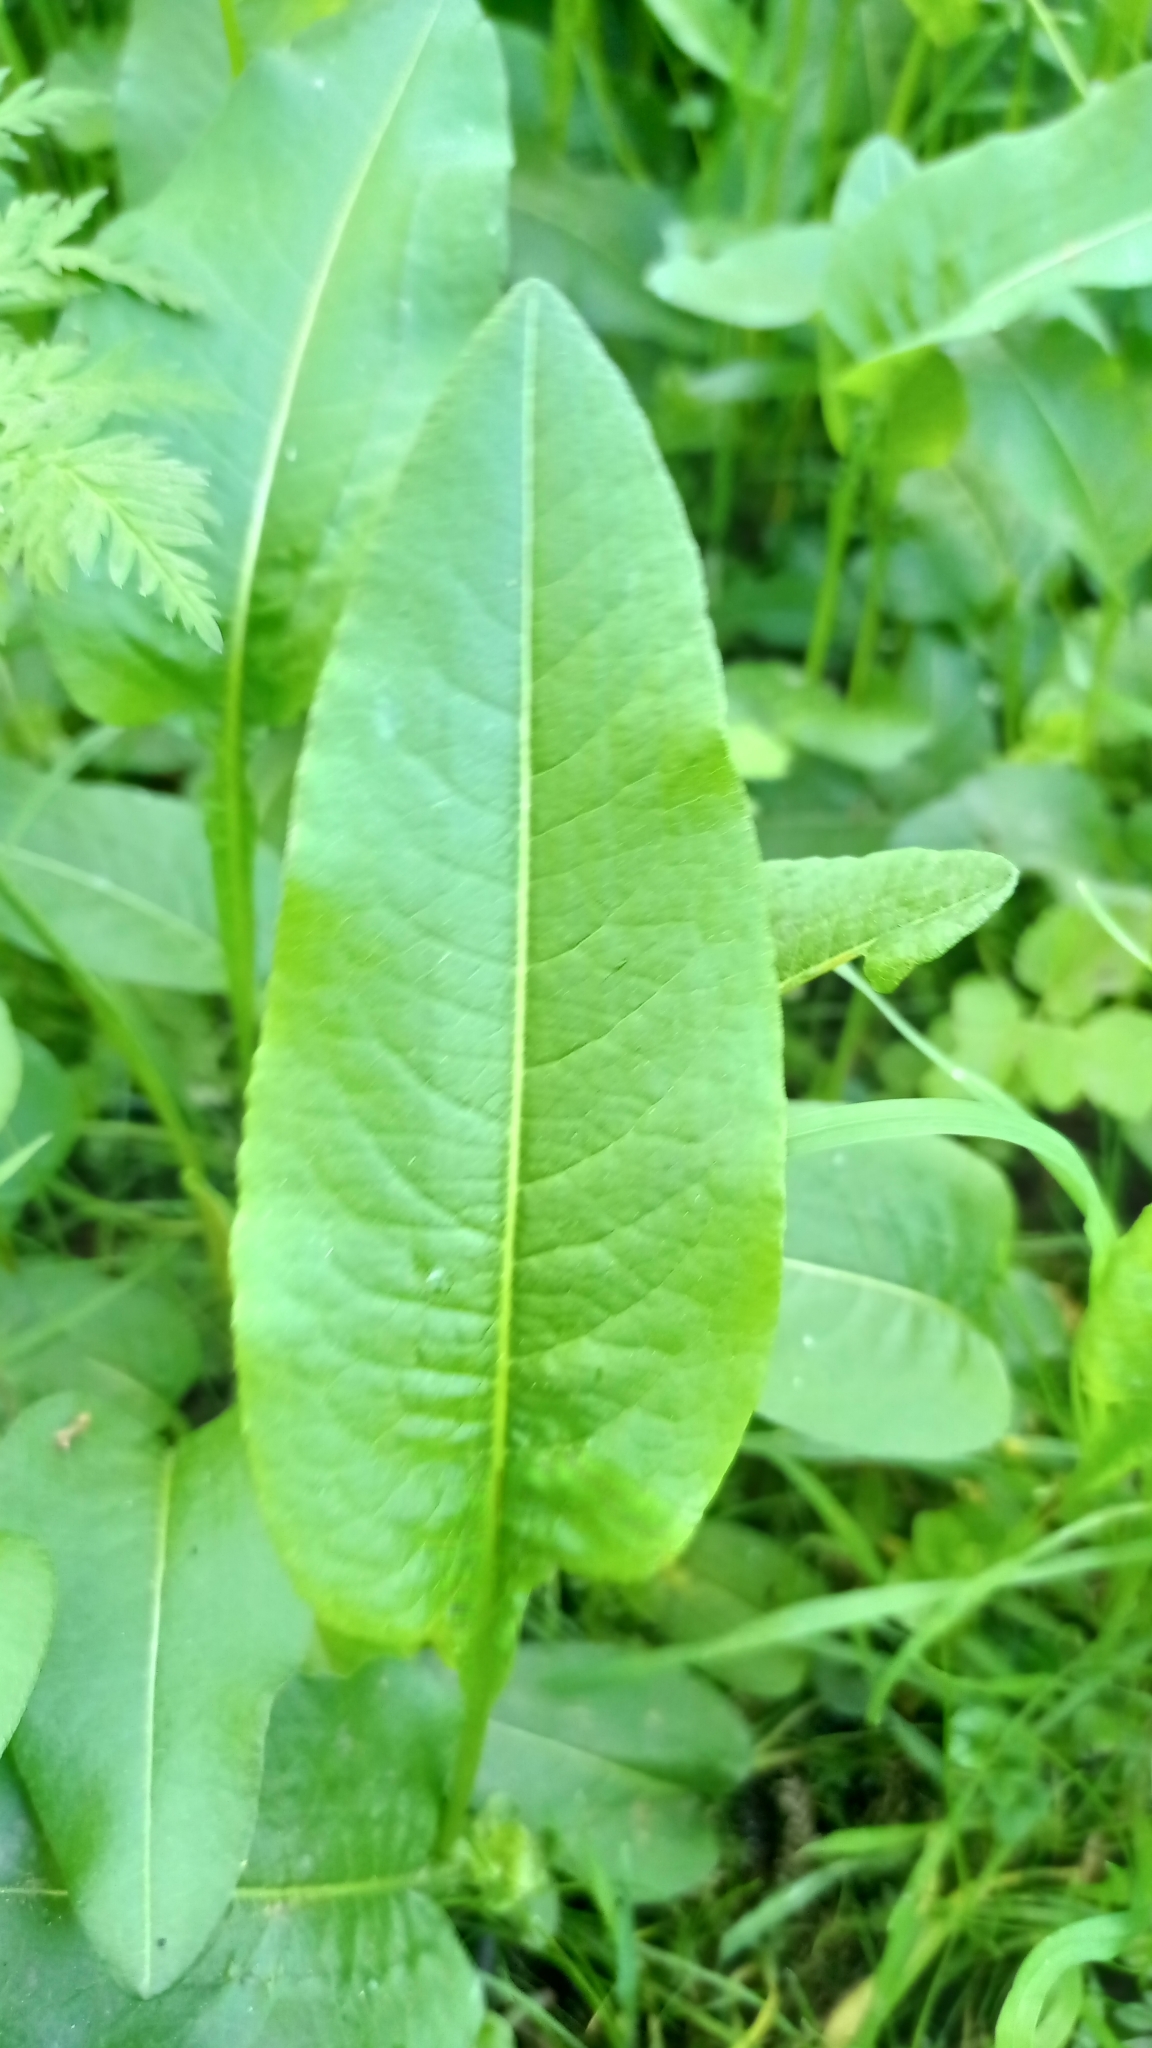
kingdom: Plantae
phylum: Tracheophyta
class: Magnoliopsida
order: Caryophyllales
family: Polygonaceae
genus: Bistorta
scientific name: Bistorta officinalis
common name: Common bistort
